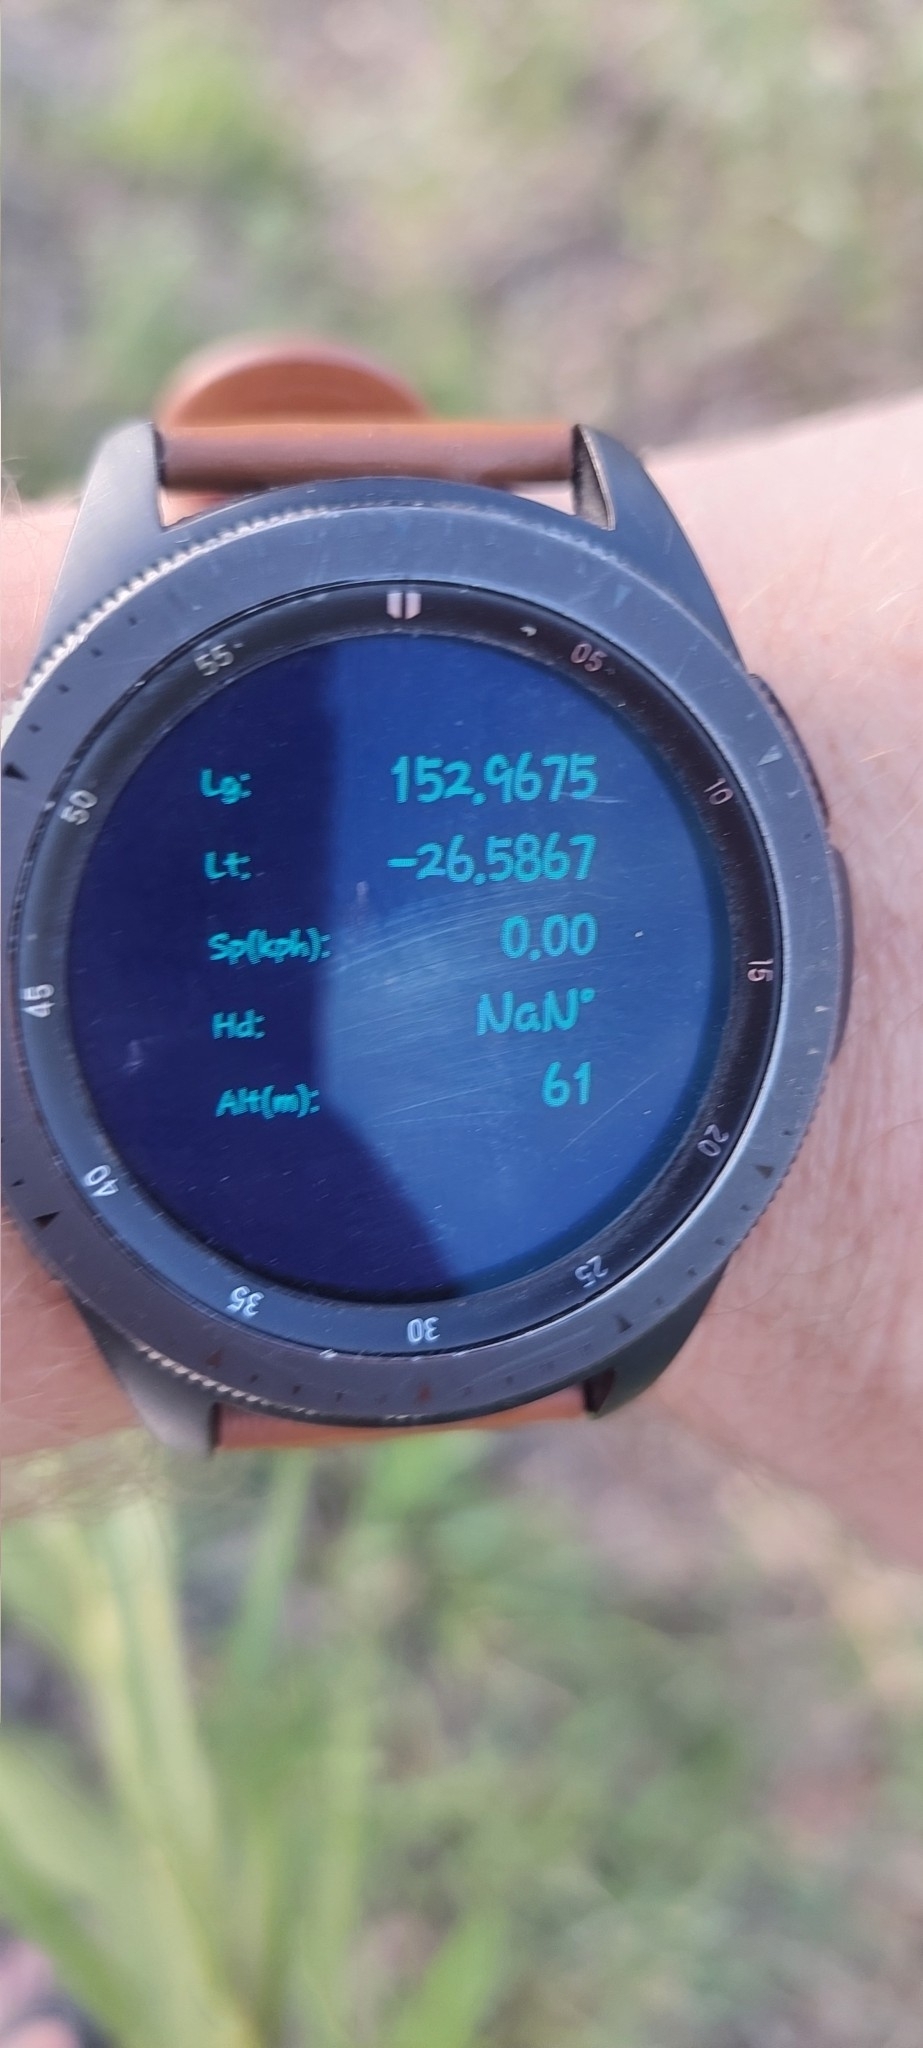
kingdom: Plantae
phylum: Tracheophyta
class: Magnoliopsida
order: Asterales
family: Asteraceae
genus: Solidago
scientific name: Solidago canadensis
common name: Canada goldenrod
